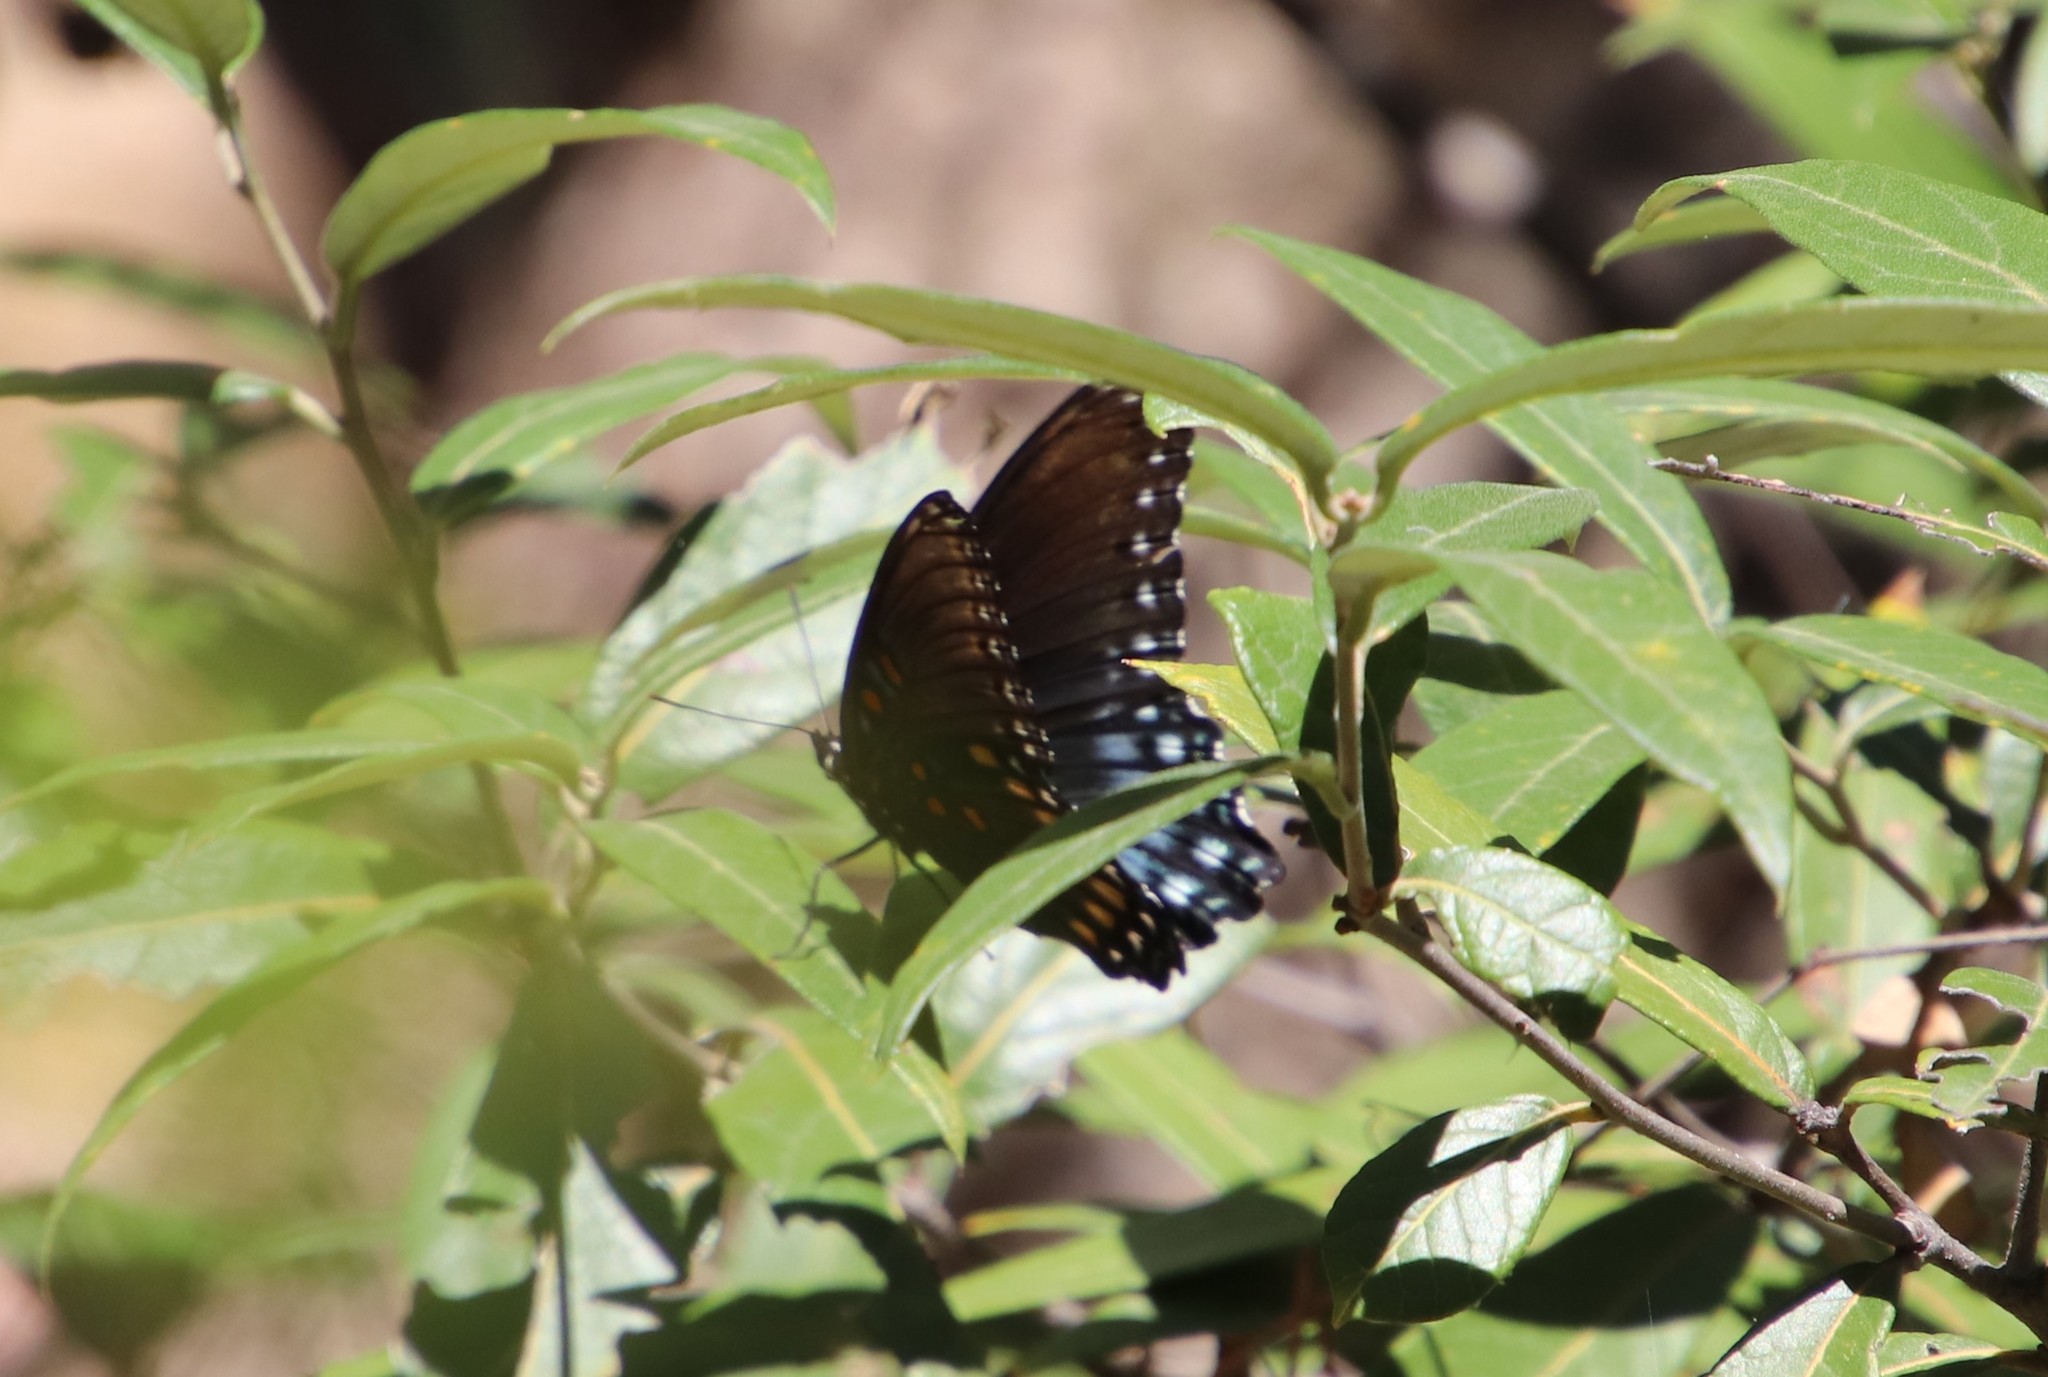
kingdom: Animalia
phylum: Arthropoda
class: Insecta
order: Lepidoptera
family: Nymphalidae
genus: Limenitis
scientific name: Limenitis arthemis
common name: Red-spotted admiral
